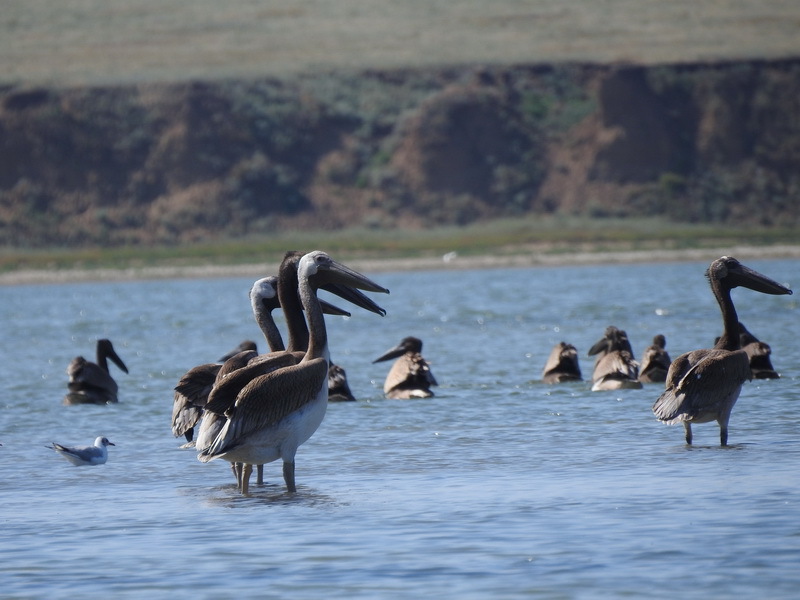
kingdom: Animalia
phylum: Chordata
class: Aves
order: Pelecaniformes
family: Pelecanidae
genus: Pelecanus
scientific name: Pelecanus onocrotalus
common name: Great white pelican
